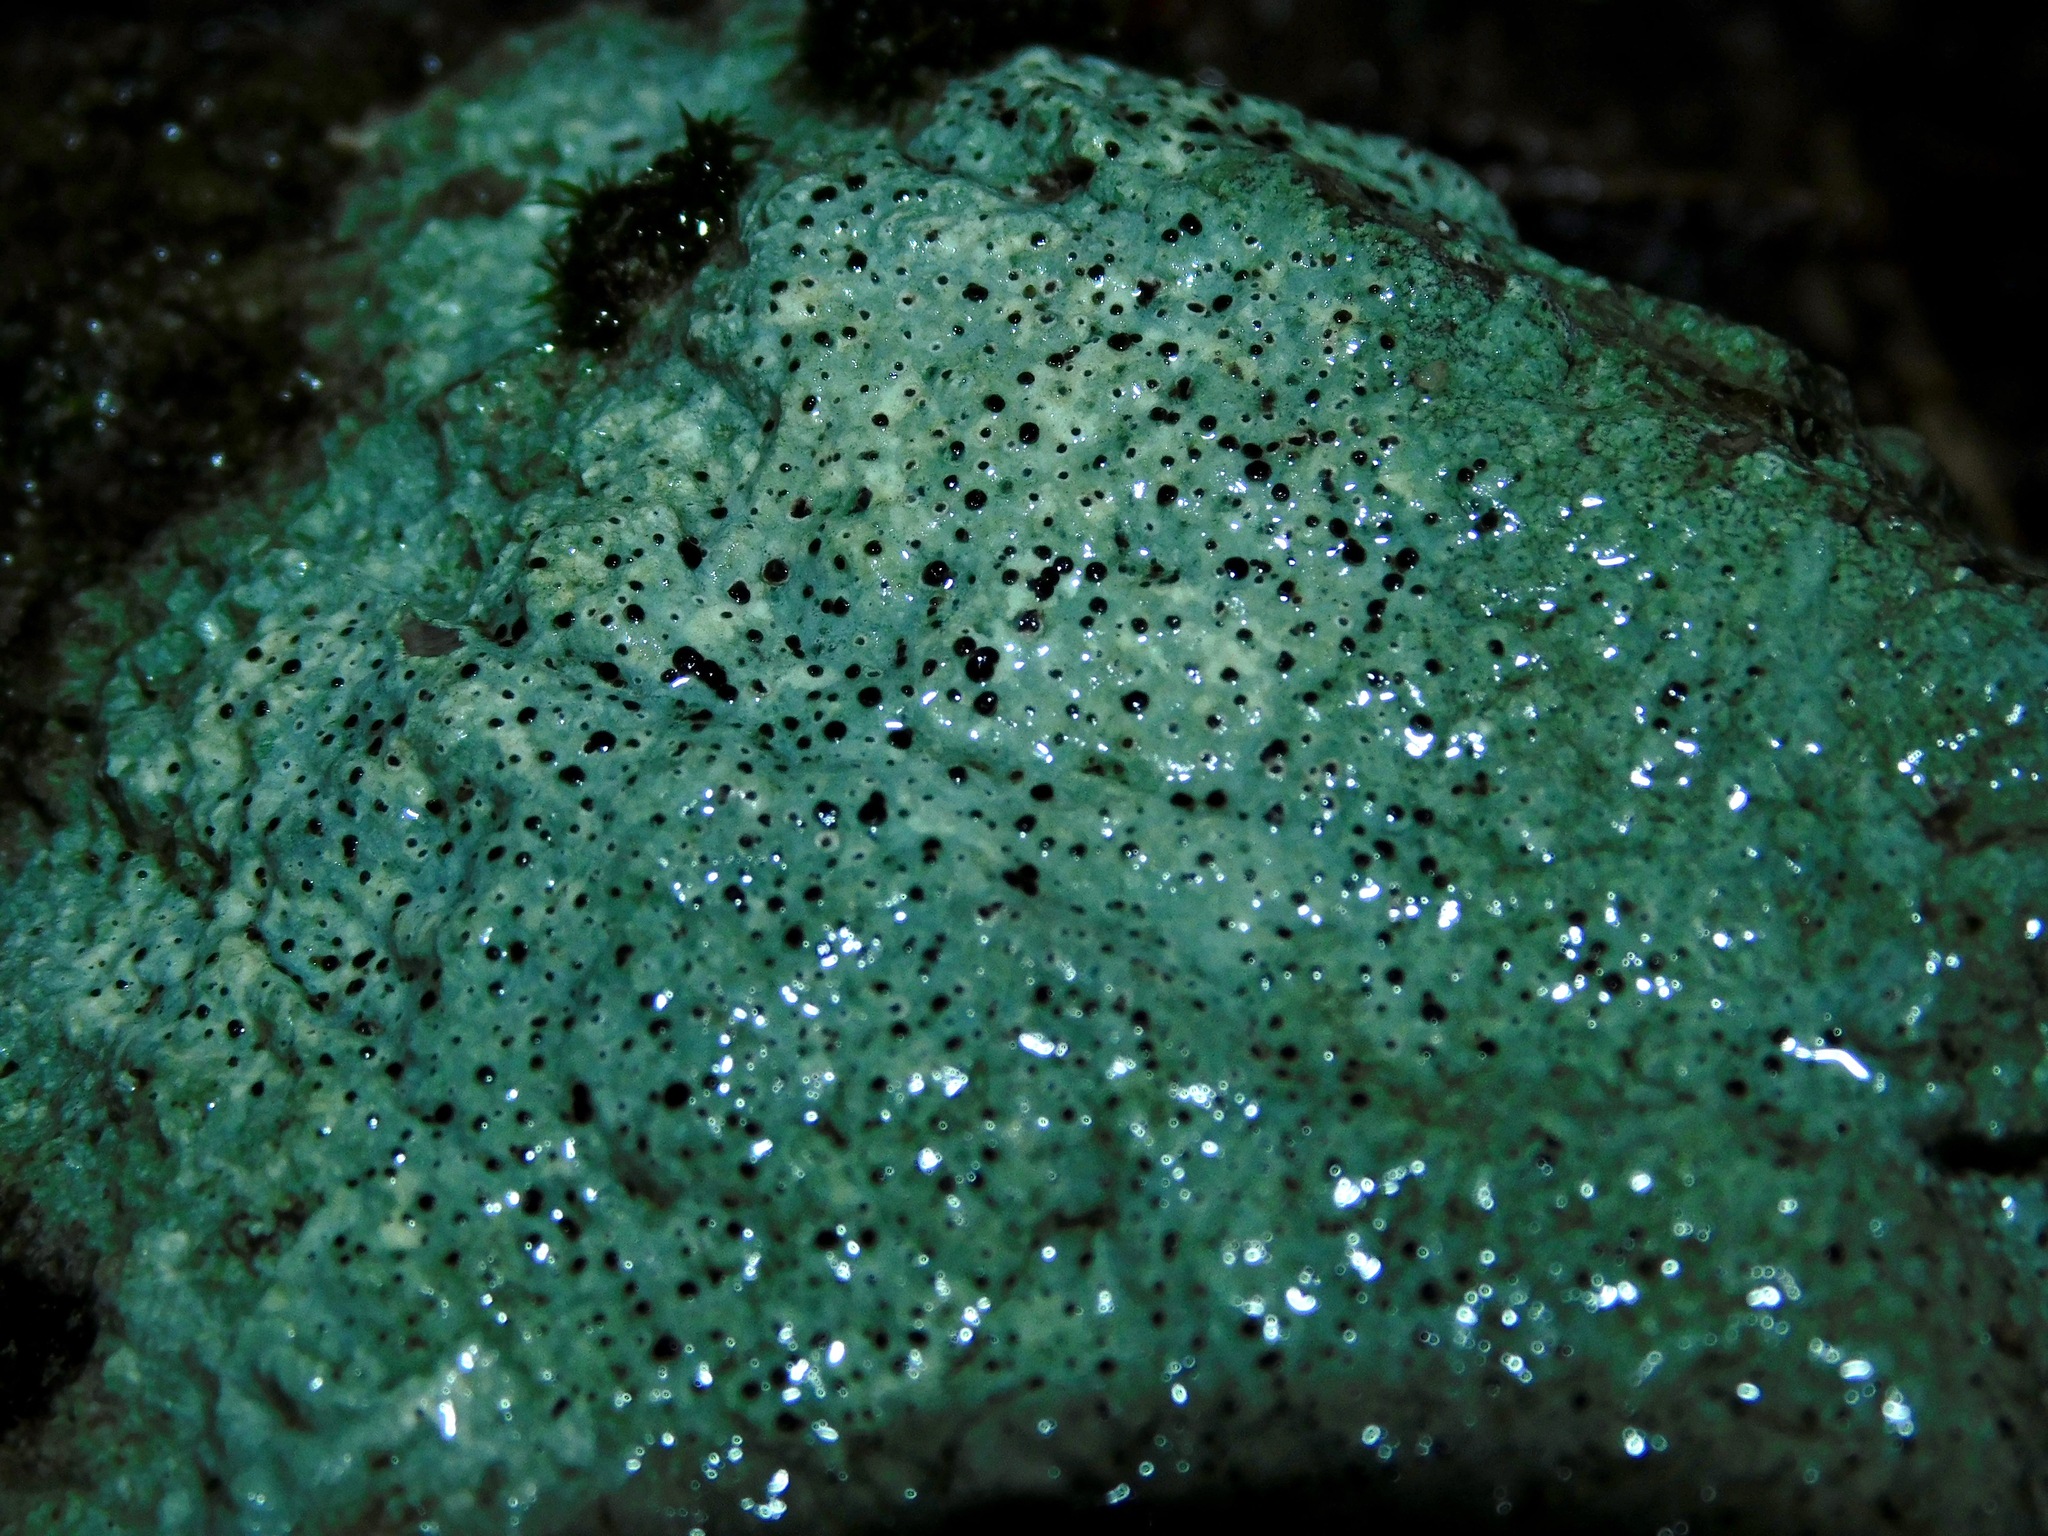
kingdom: Fungi
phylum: Ascomycota
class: Lecanoromycetes
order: Ostropales
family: Graphidaceae
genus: Diploschistes
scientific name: Diploschistes actinostomus
